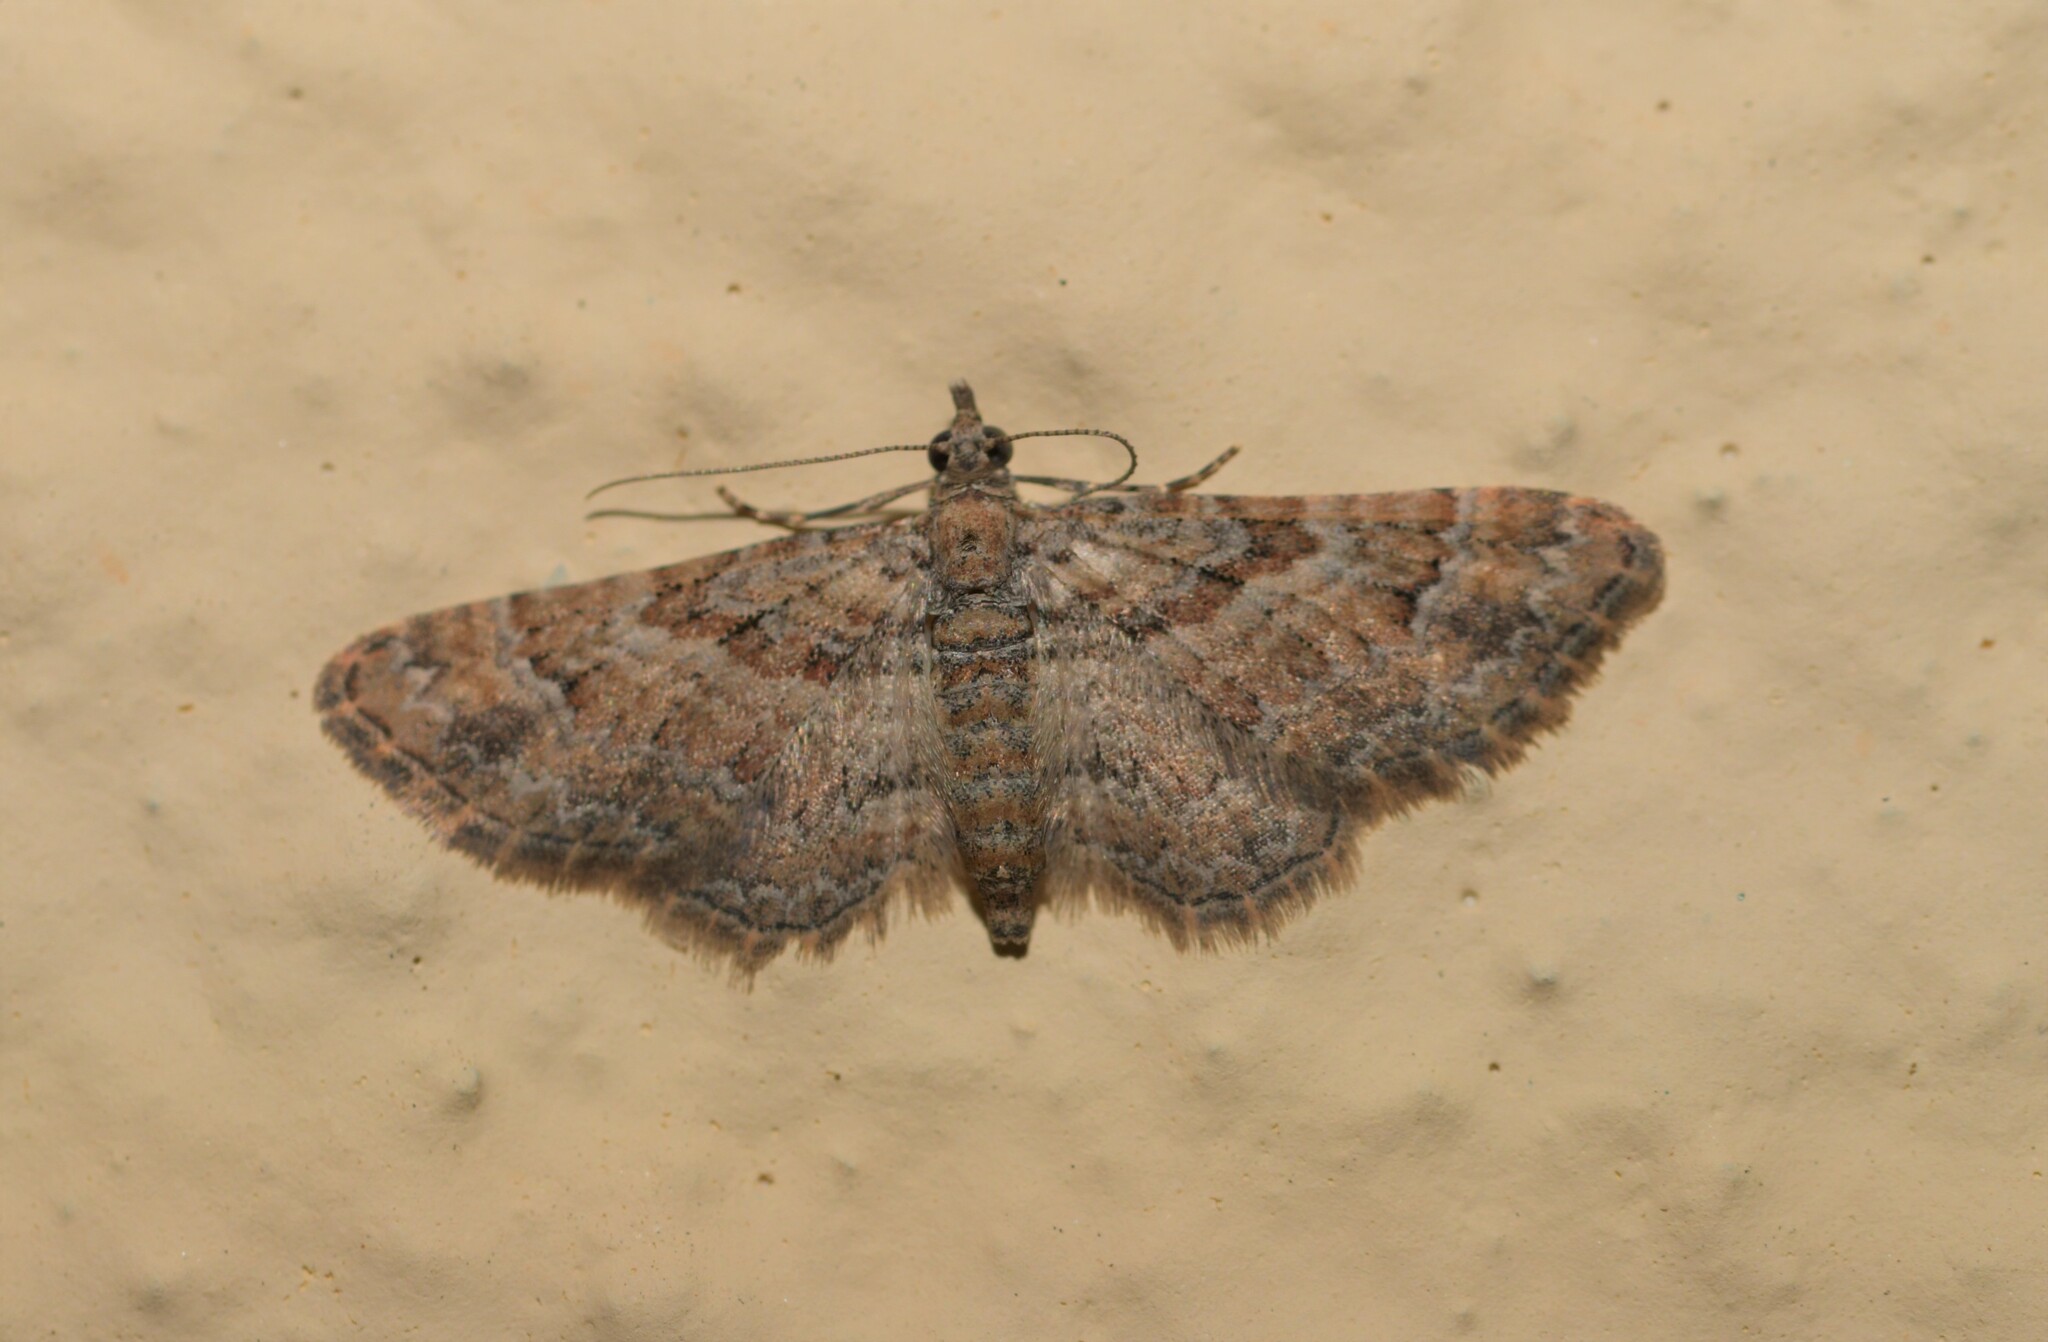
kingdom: Animalia
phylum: Arthropoda
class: Insecta
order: Lepidoptera
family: Geometridae
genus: Gymnoscelis
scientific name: Gymnoscelis rufifasciata
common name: Double-striped pug
